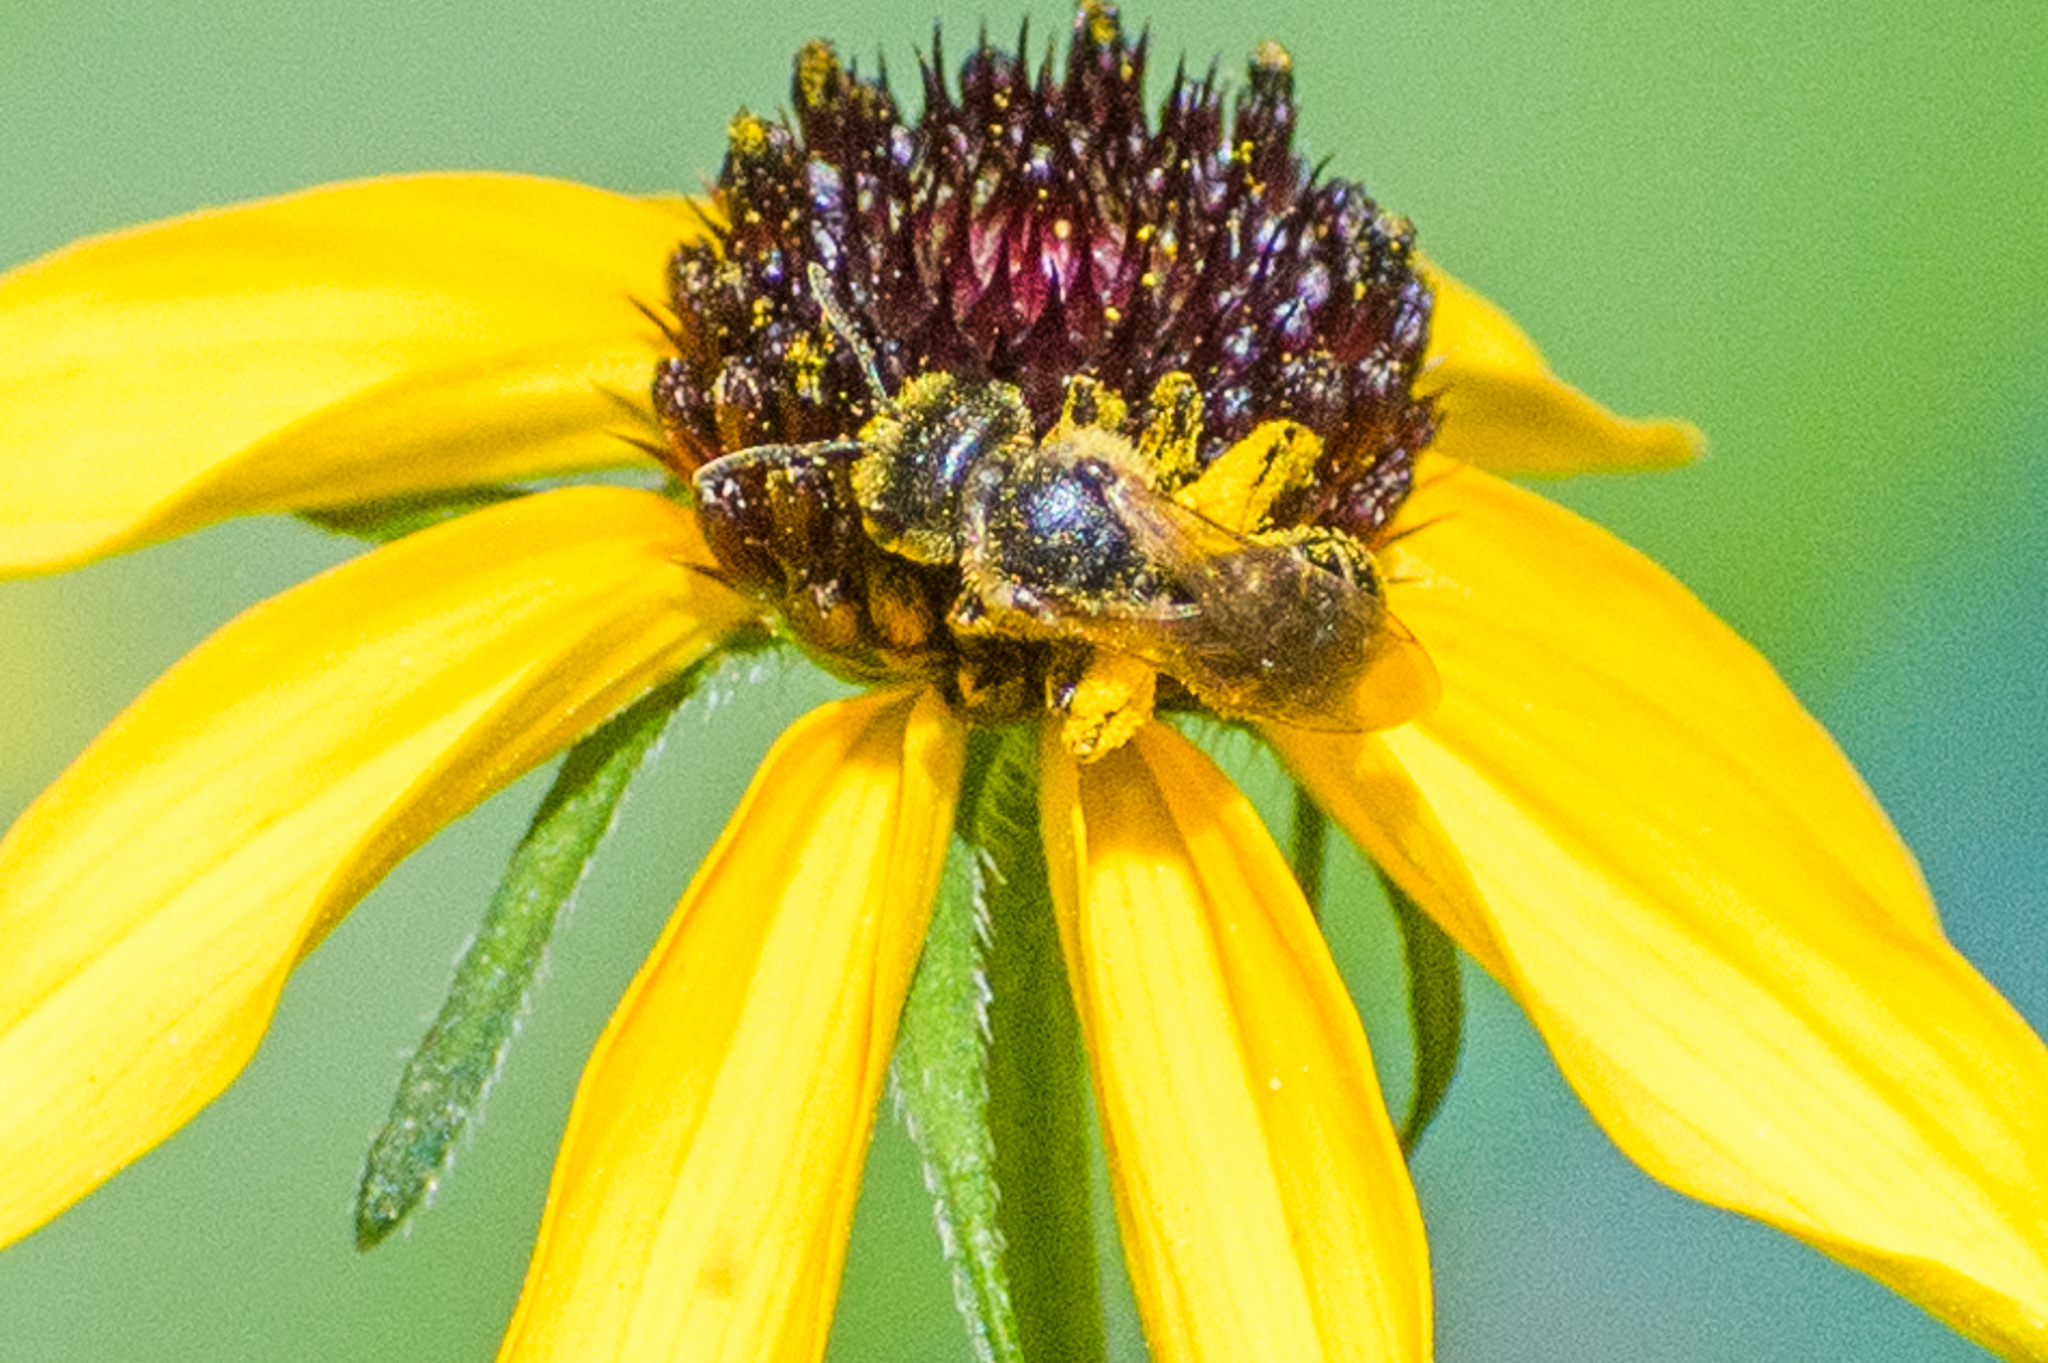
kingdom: Animalia
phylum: Arthropoda
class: Insecta
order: Hymenoptera
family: Halictidae
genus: Halictus
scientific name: Halictus ligatus
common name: Ligated furrow bee
